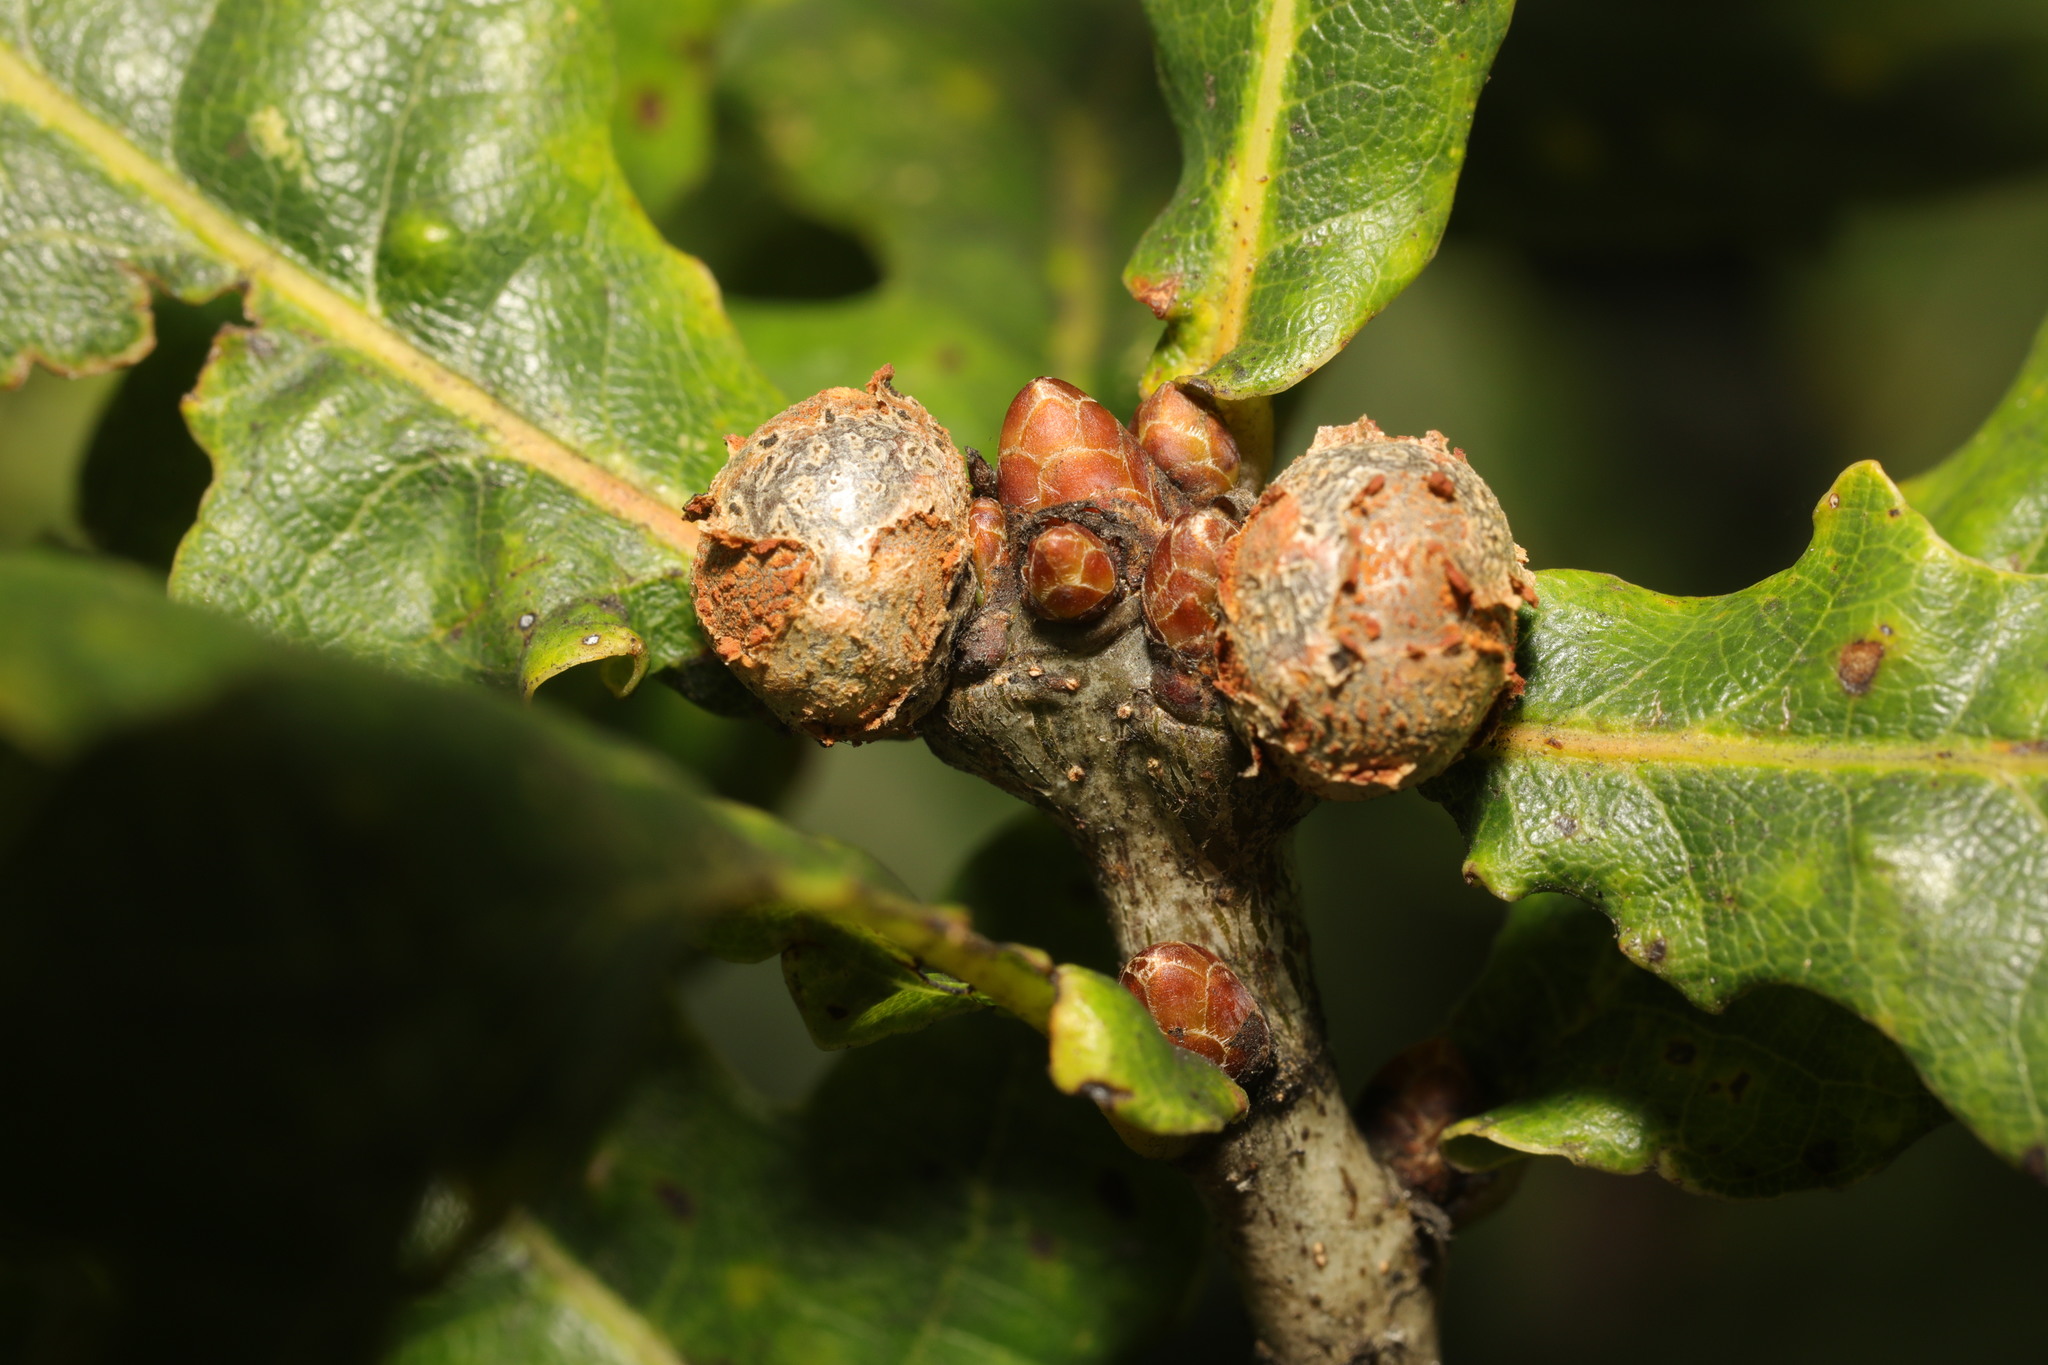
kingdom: Animalia
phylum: Arthropoda
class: Insecta
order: Hymenoptera
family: Cynipidae
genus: Andricus
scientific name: Andricus lignicolus
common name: Cola-nut gall
